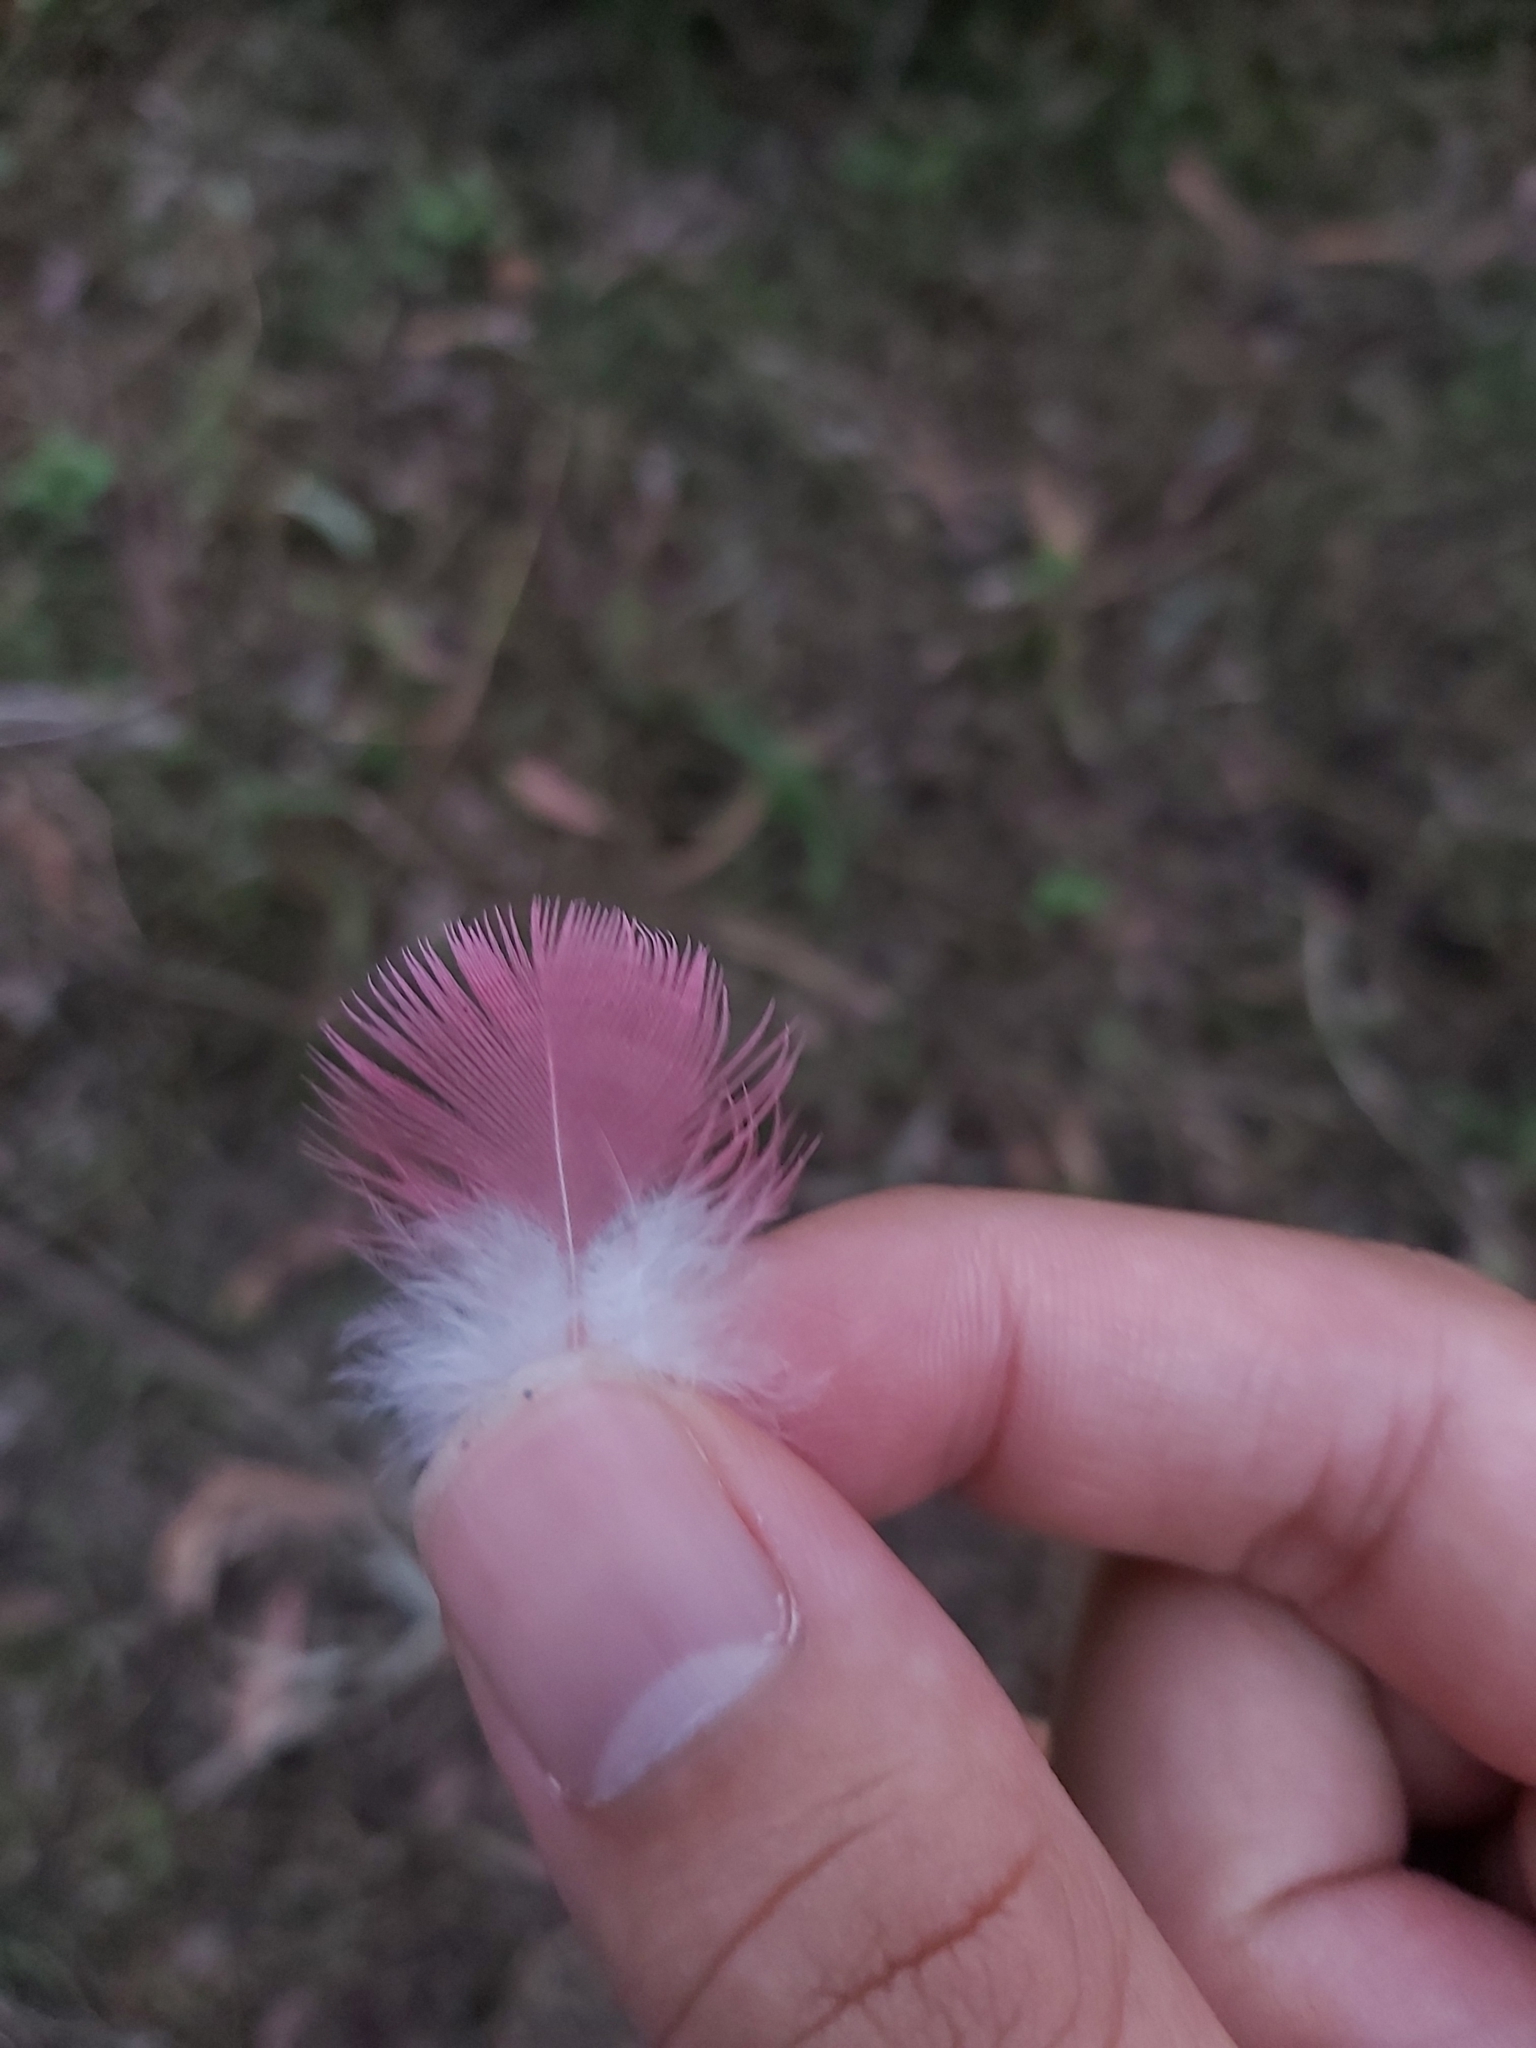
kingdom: Animalia
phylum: Chordata
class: Aves
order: Psittaciformes
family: Psittacidae
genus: Eolophus
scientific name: Eolophus roseicapilla
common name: Galah
